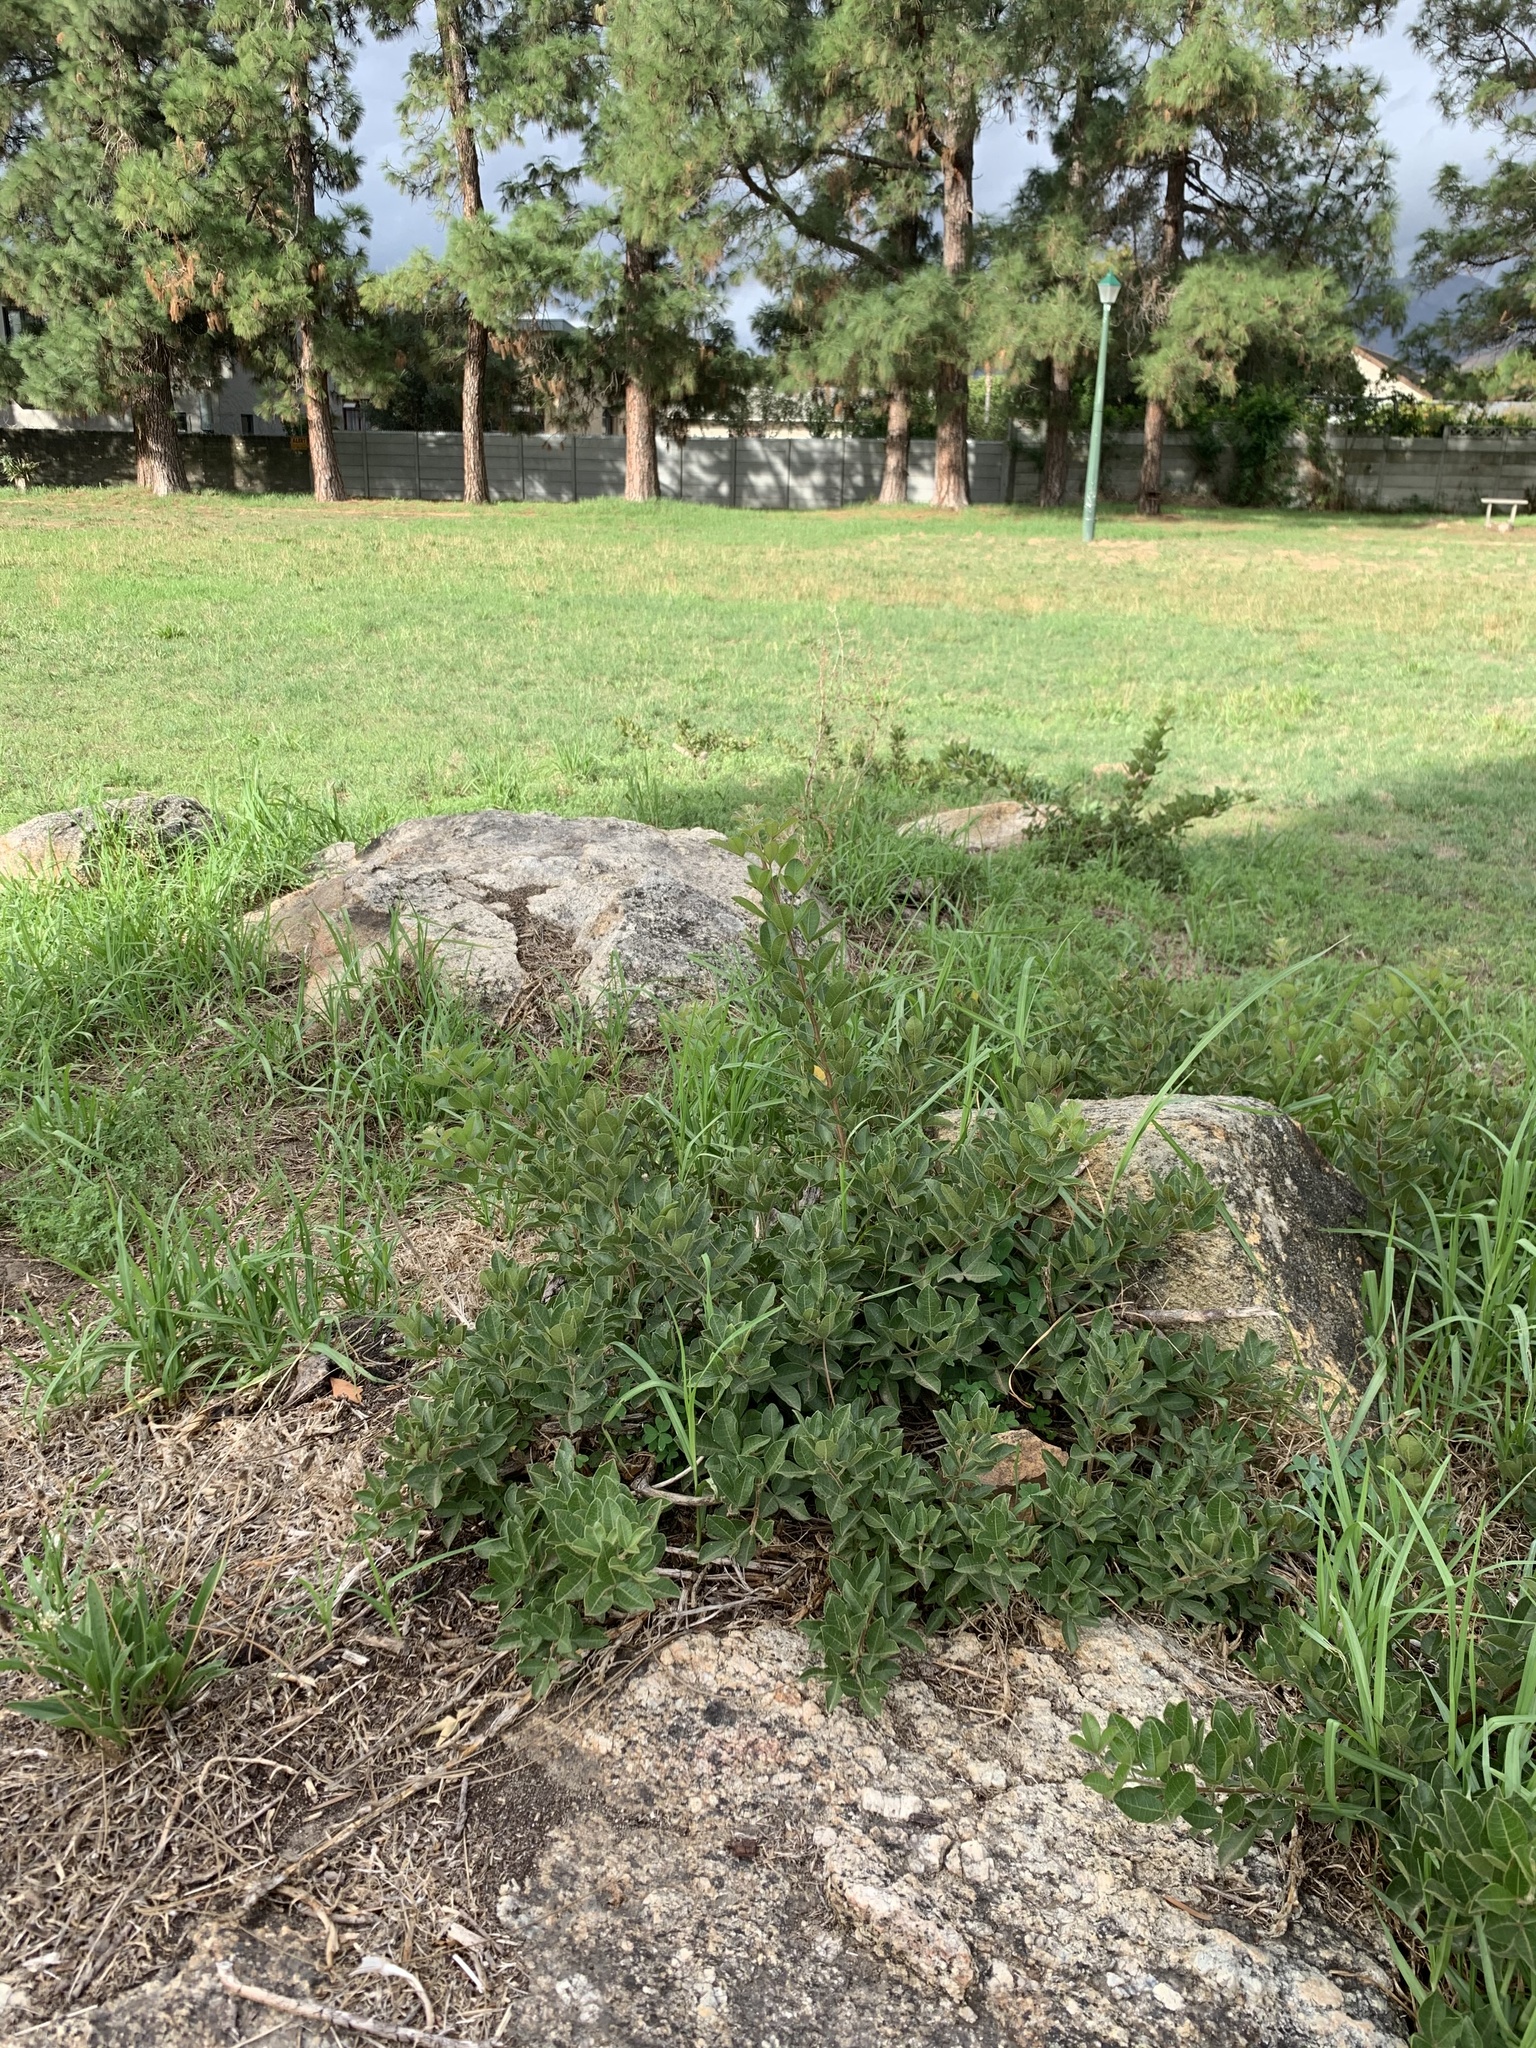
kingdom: Plantae
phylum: Tracheophyta
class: Magnoliopsida
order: Sapindales
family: Anacardiaceae
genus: Searsia
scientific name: Searsia laevigata
